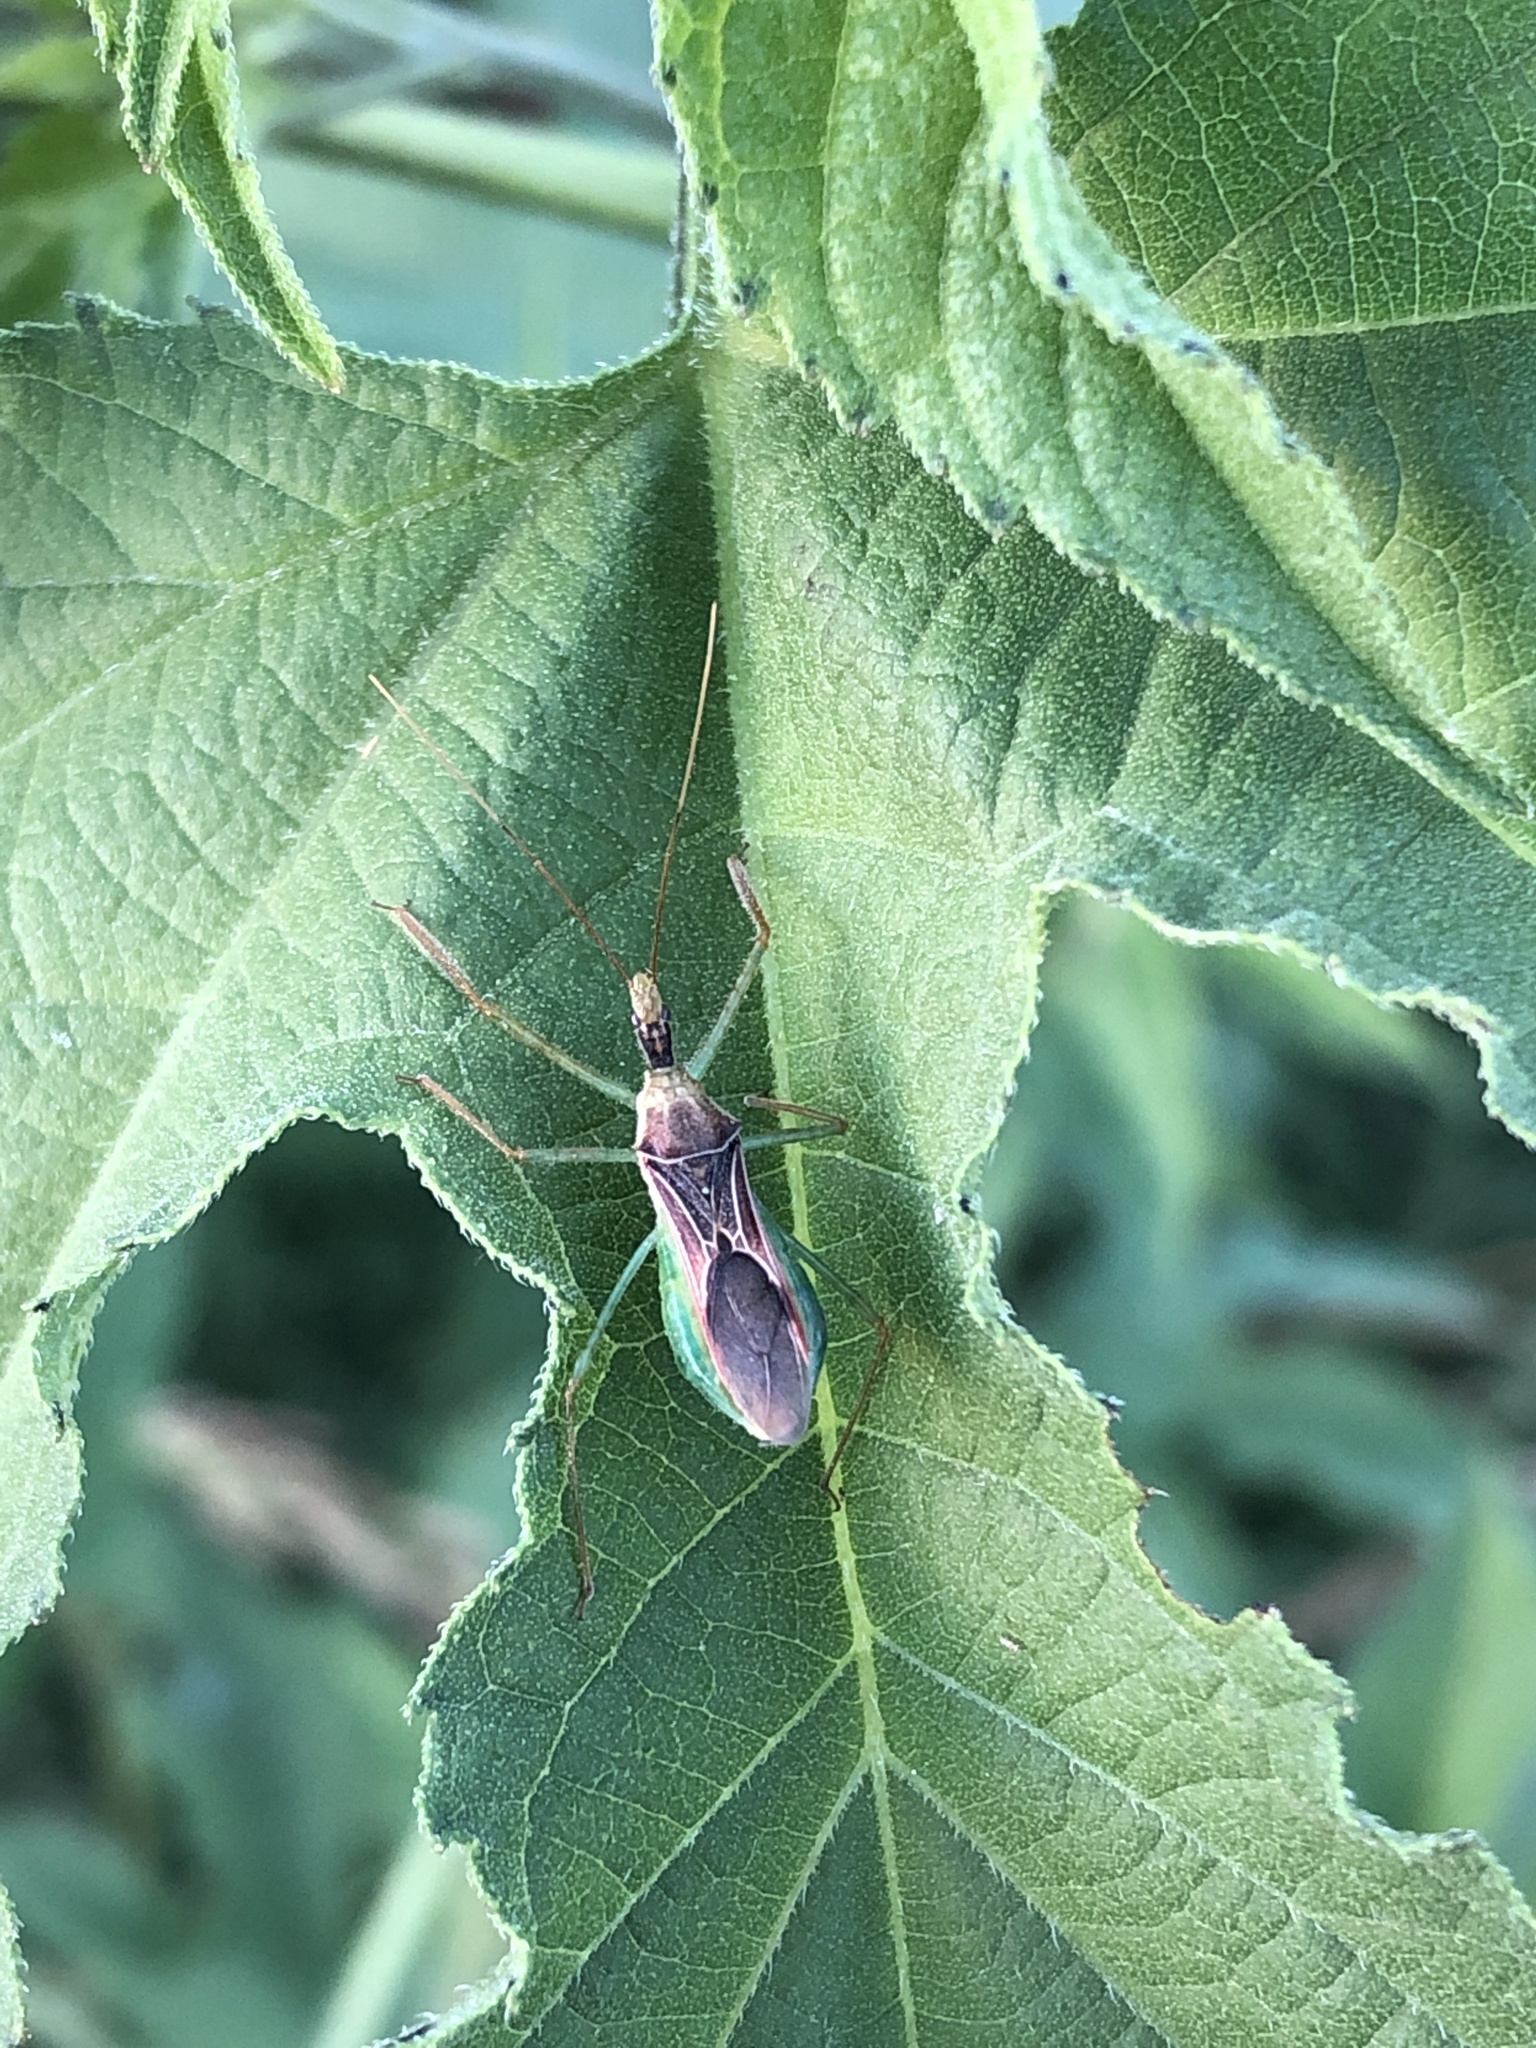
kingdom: Animalia
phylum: Arthropoda
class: Insecta
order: Hemiptera
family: Reduviidae
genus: Zelus
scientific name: Zelus renardii
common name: Assassin bug
